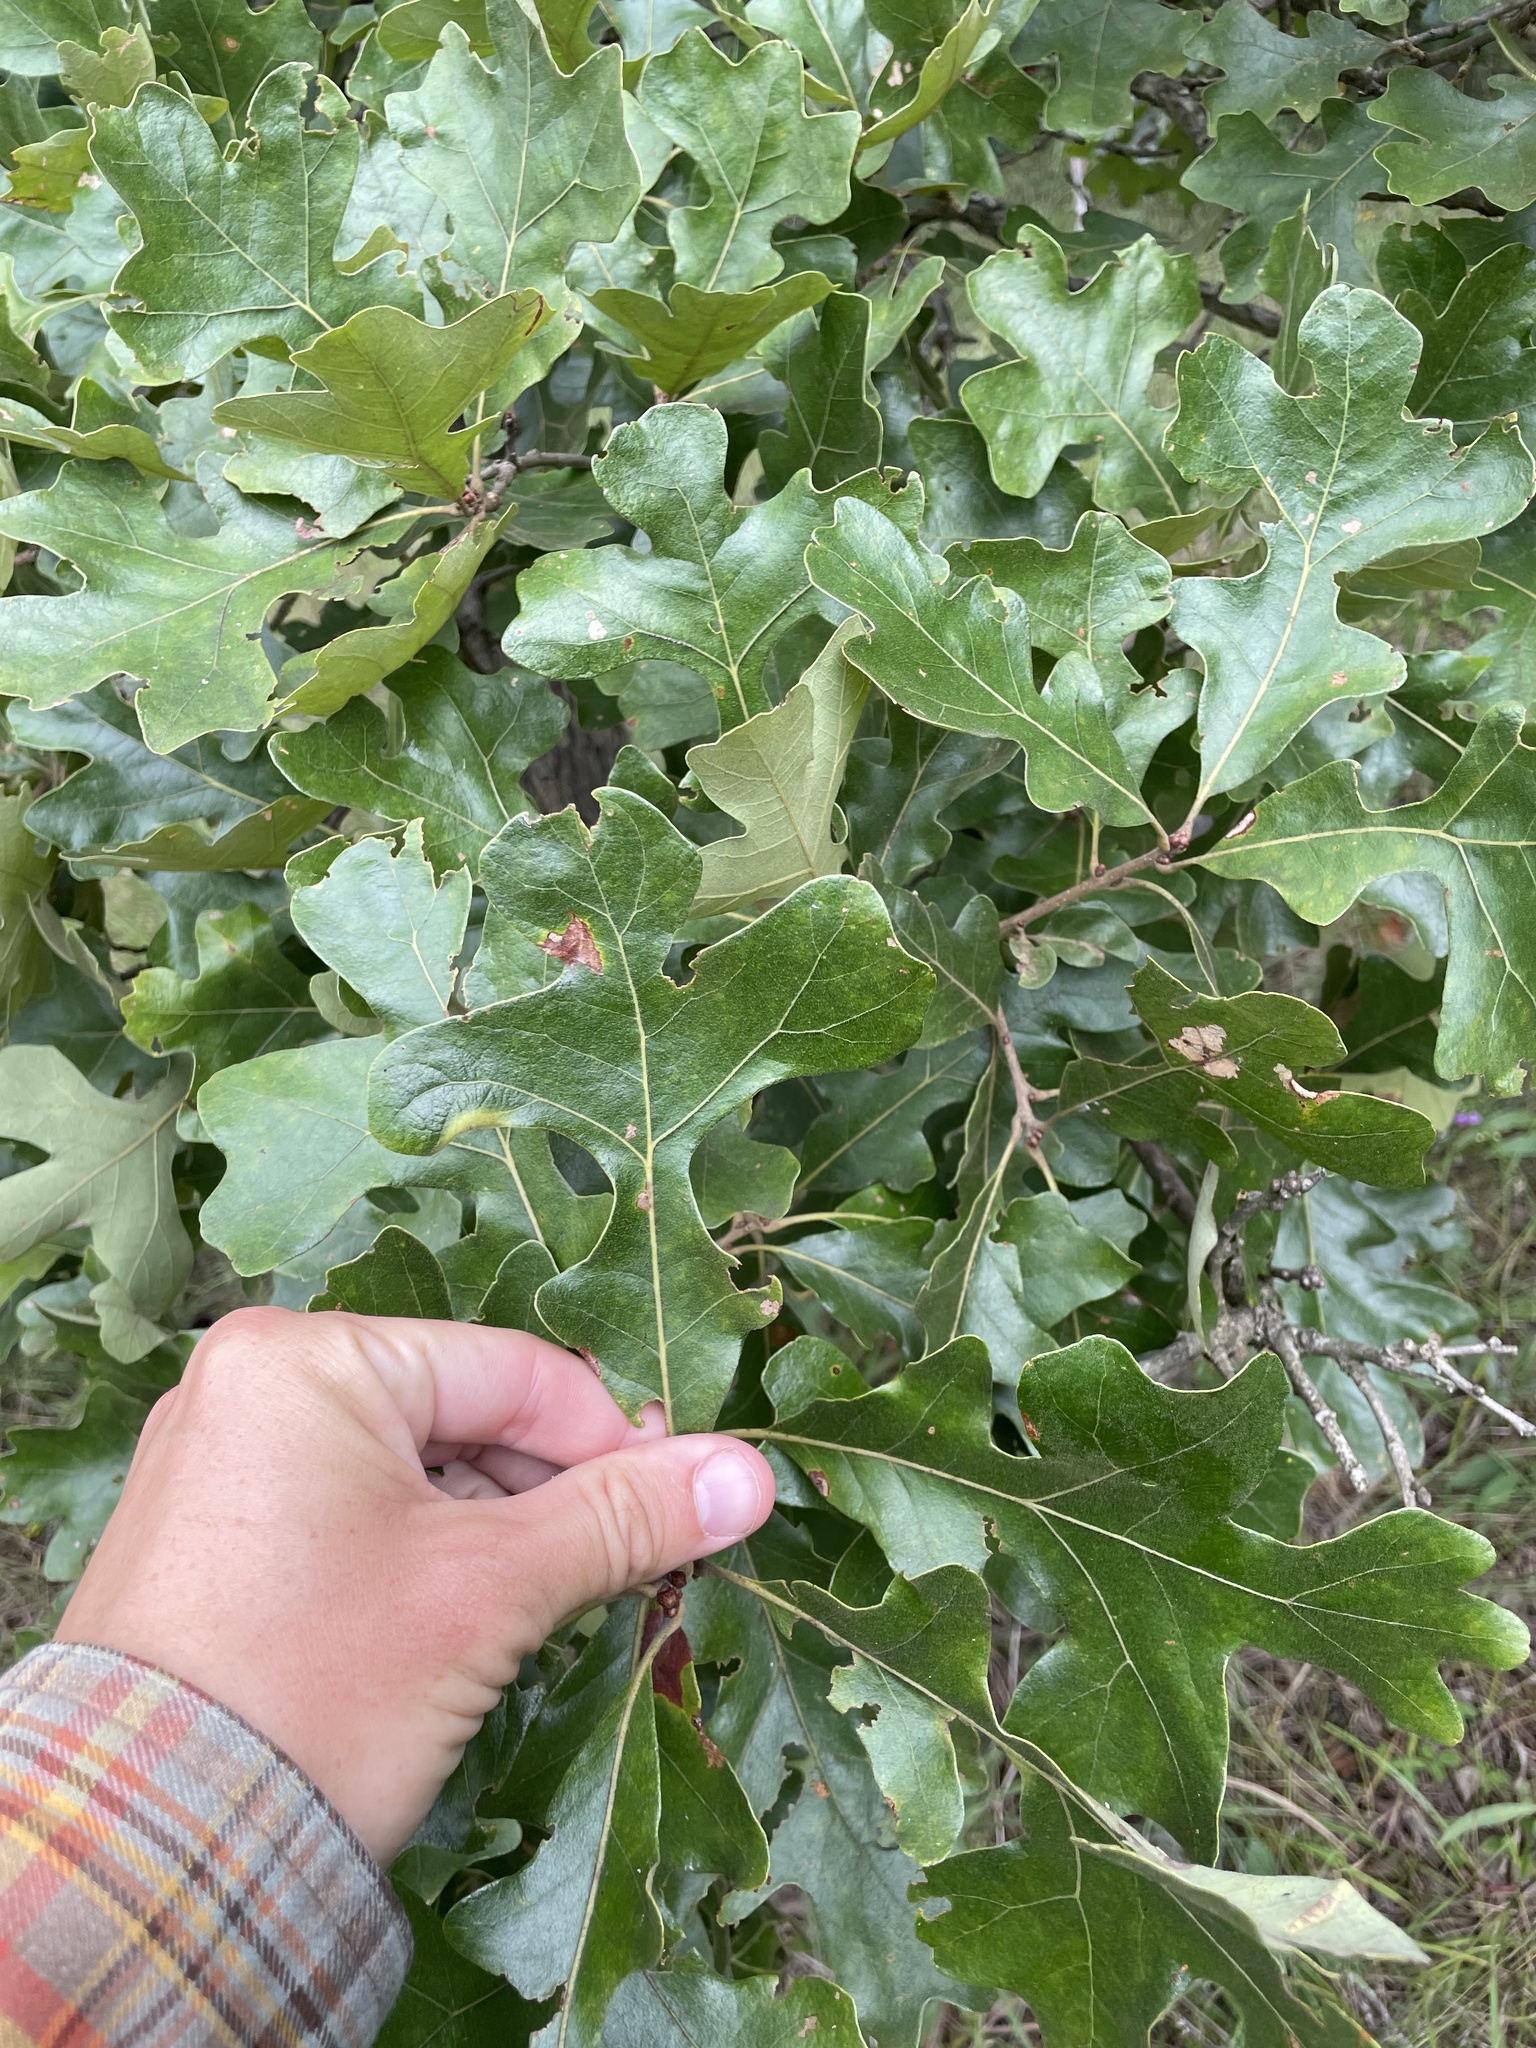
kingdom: Plantae
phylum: Tracheophyta
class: Magnoliopsida
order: Fagales
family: Fagaceae
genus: Quercus
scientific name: Quercus stellata
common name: Post oak
